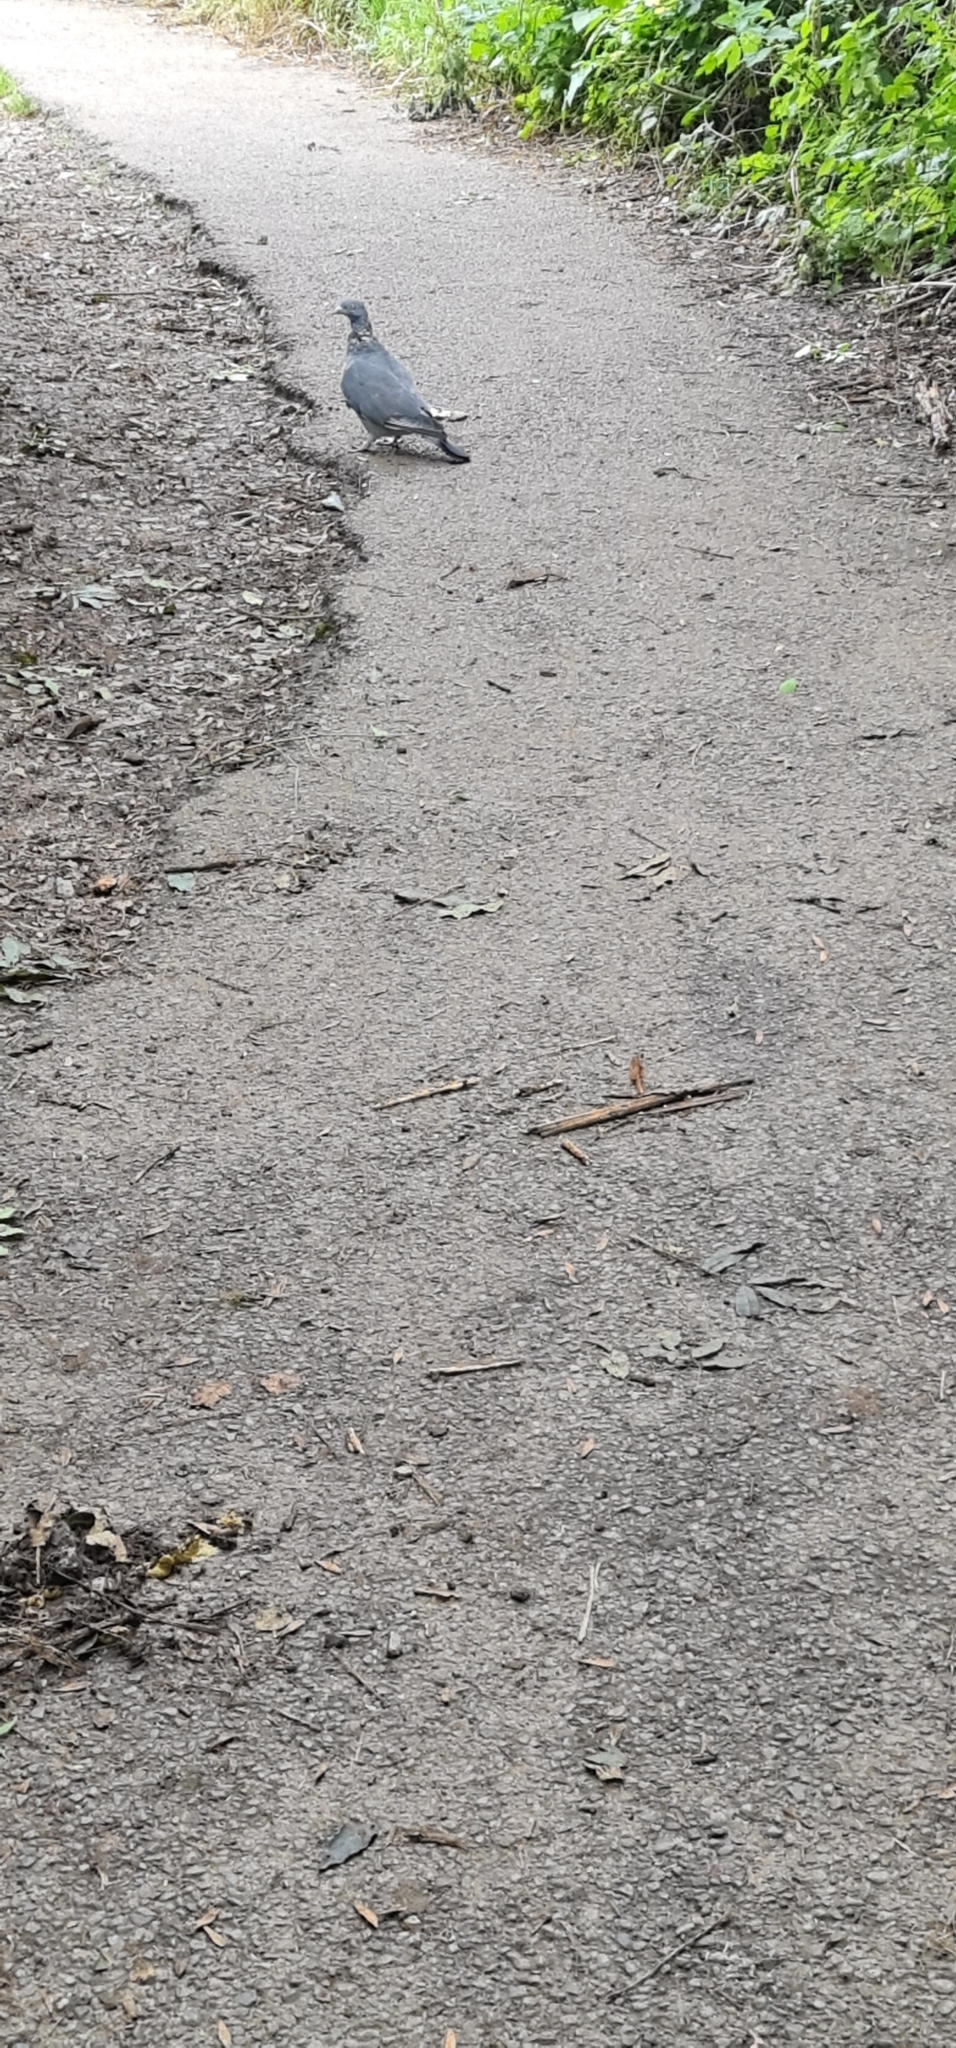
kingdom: Animalia
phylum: Chordata
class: Aves
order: Columbiformes
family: Columbidae
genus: Columba
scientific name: Columba palumbus
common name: Common wood pigeon
